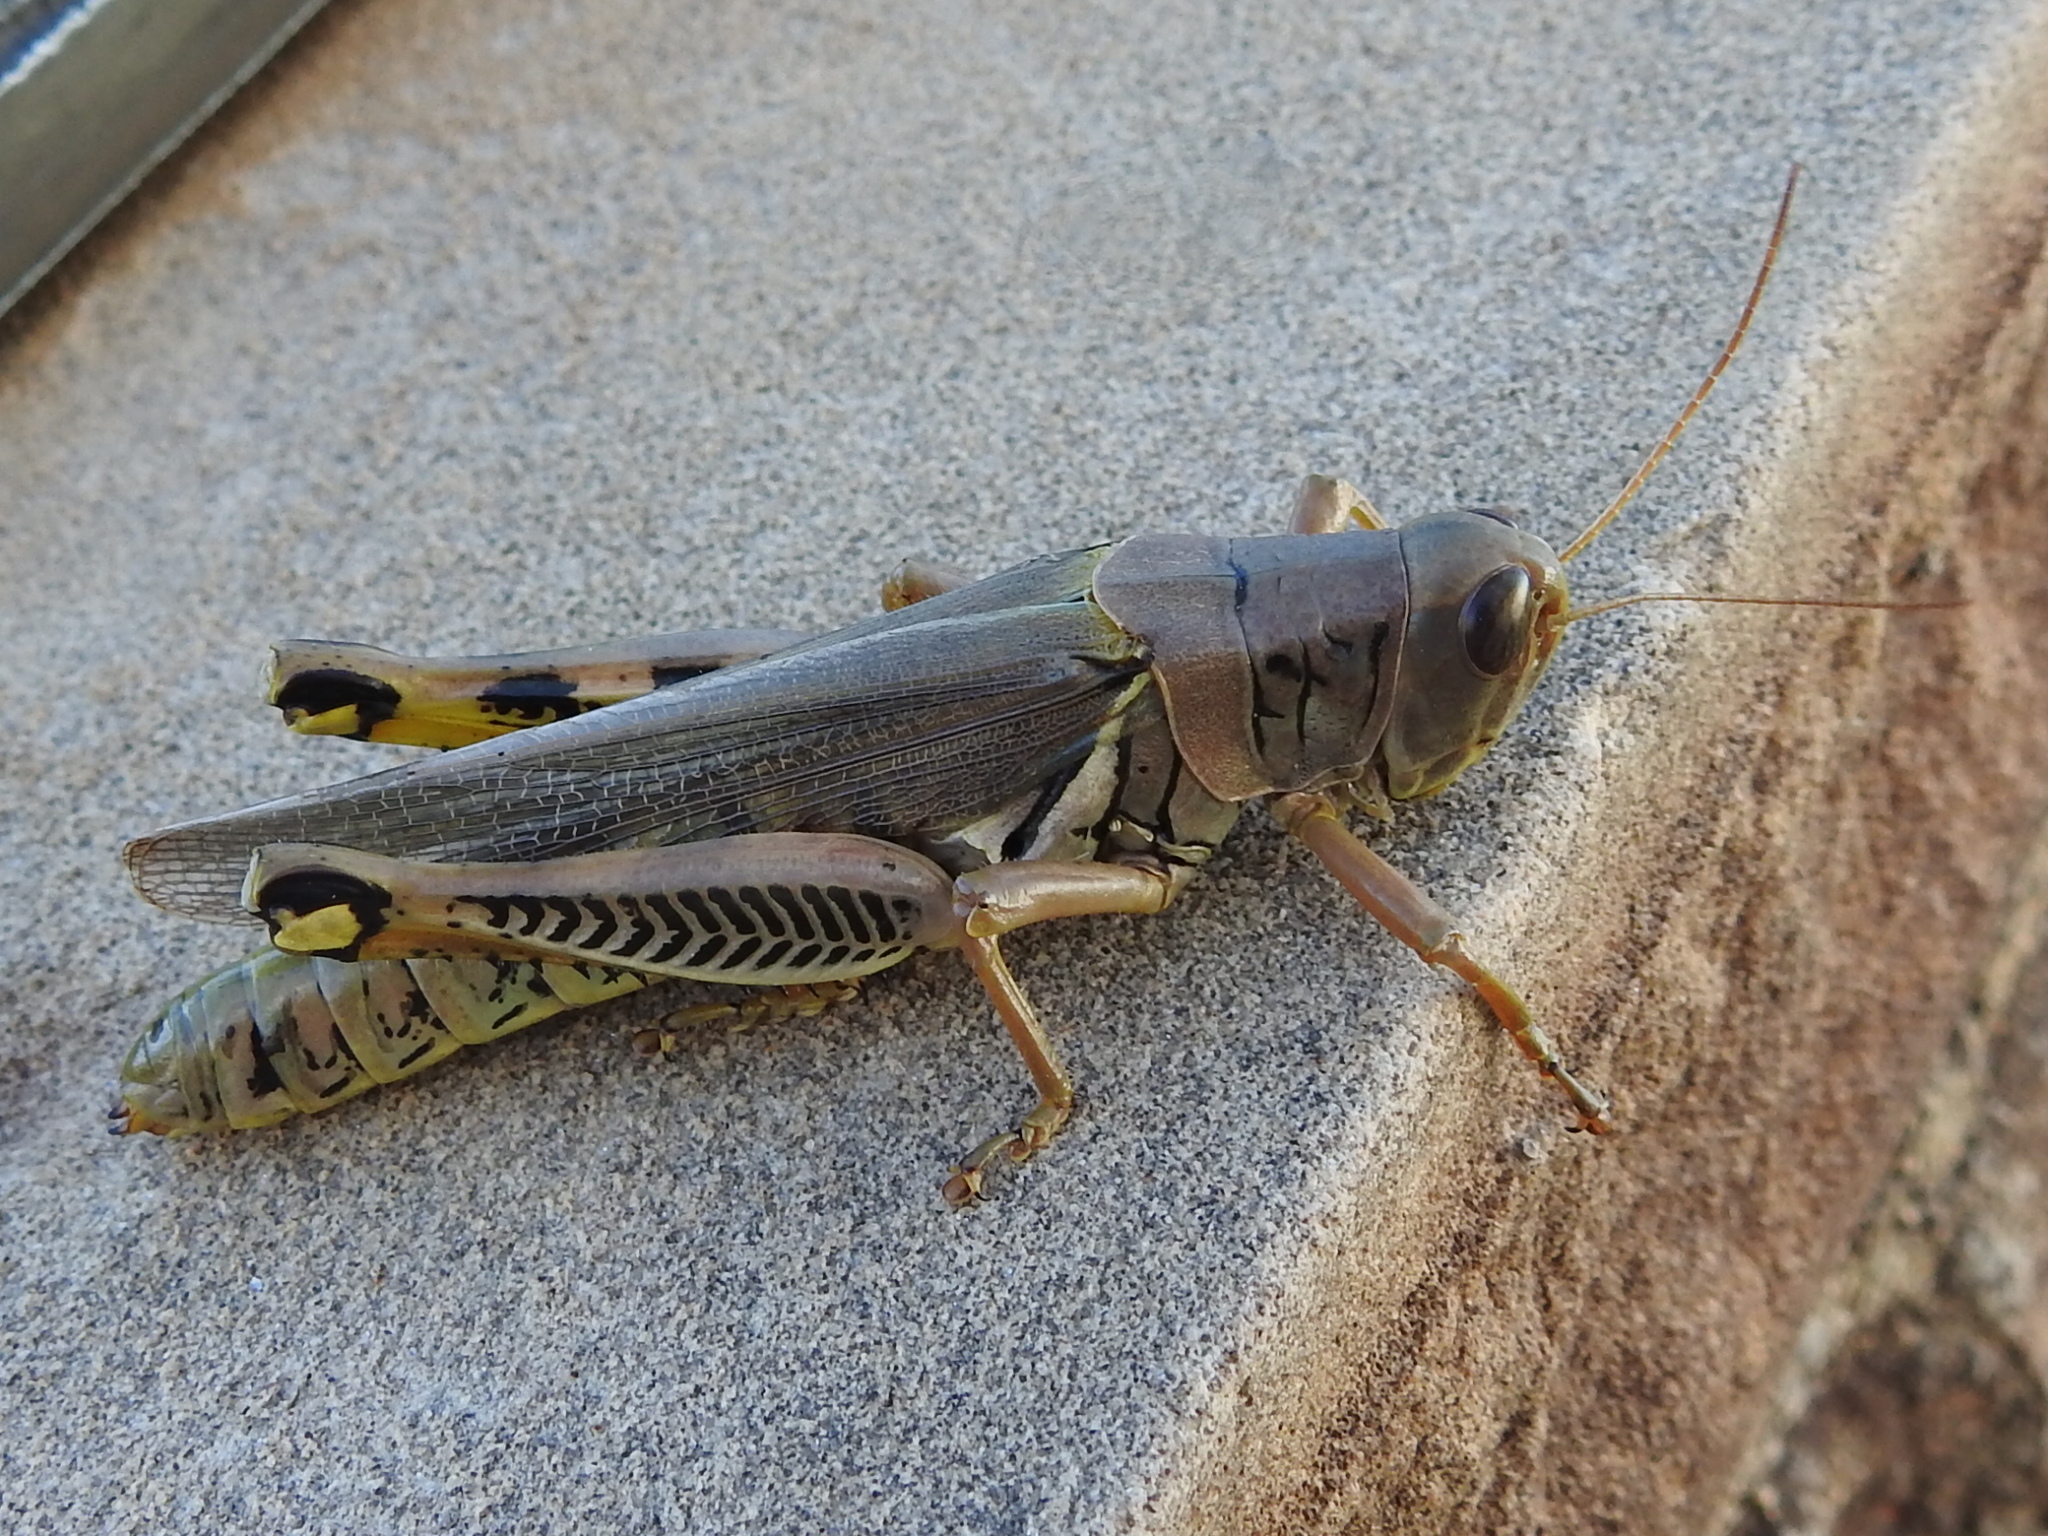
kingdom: Animalia
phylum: Arthropoda
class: Insecta
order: Orthoptera
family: Acrididae
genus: Melanoplus
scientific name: Melanoplus differentialis
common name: Differential grasshopper
